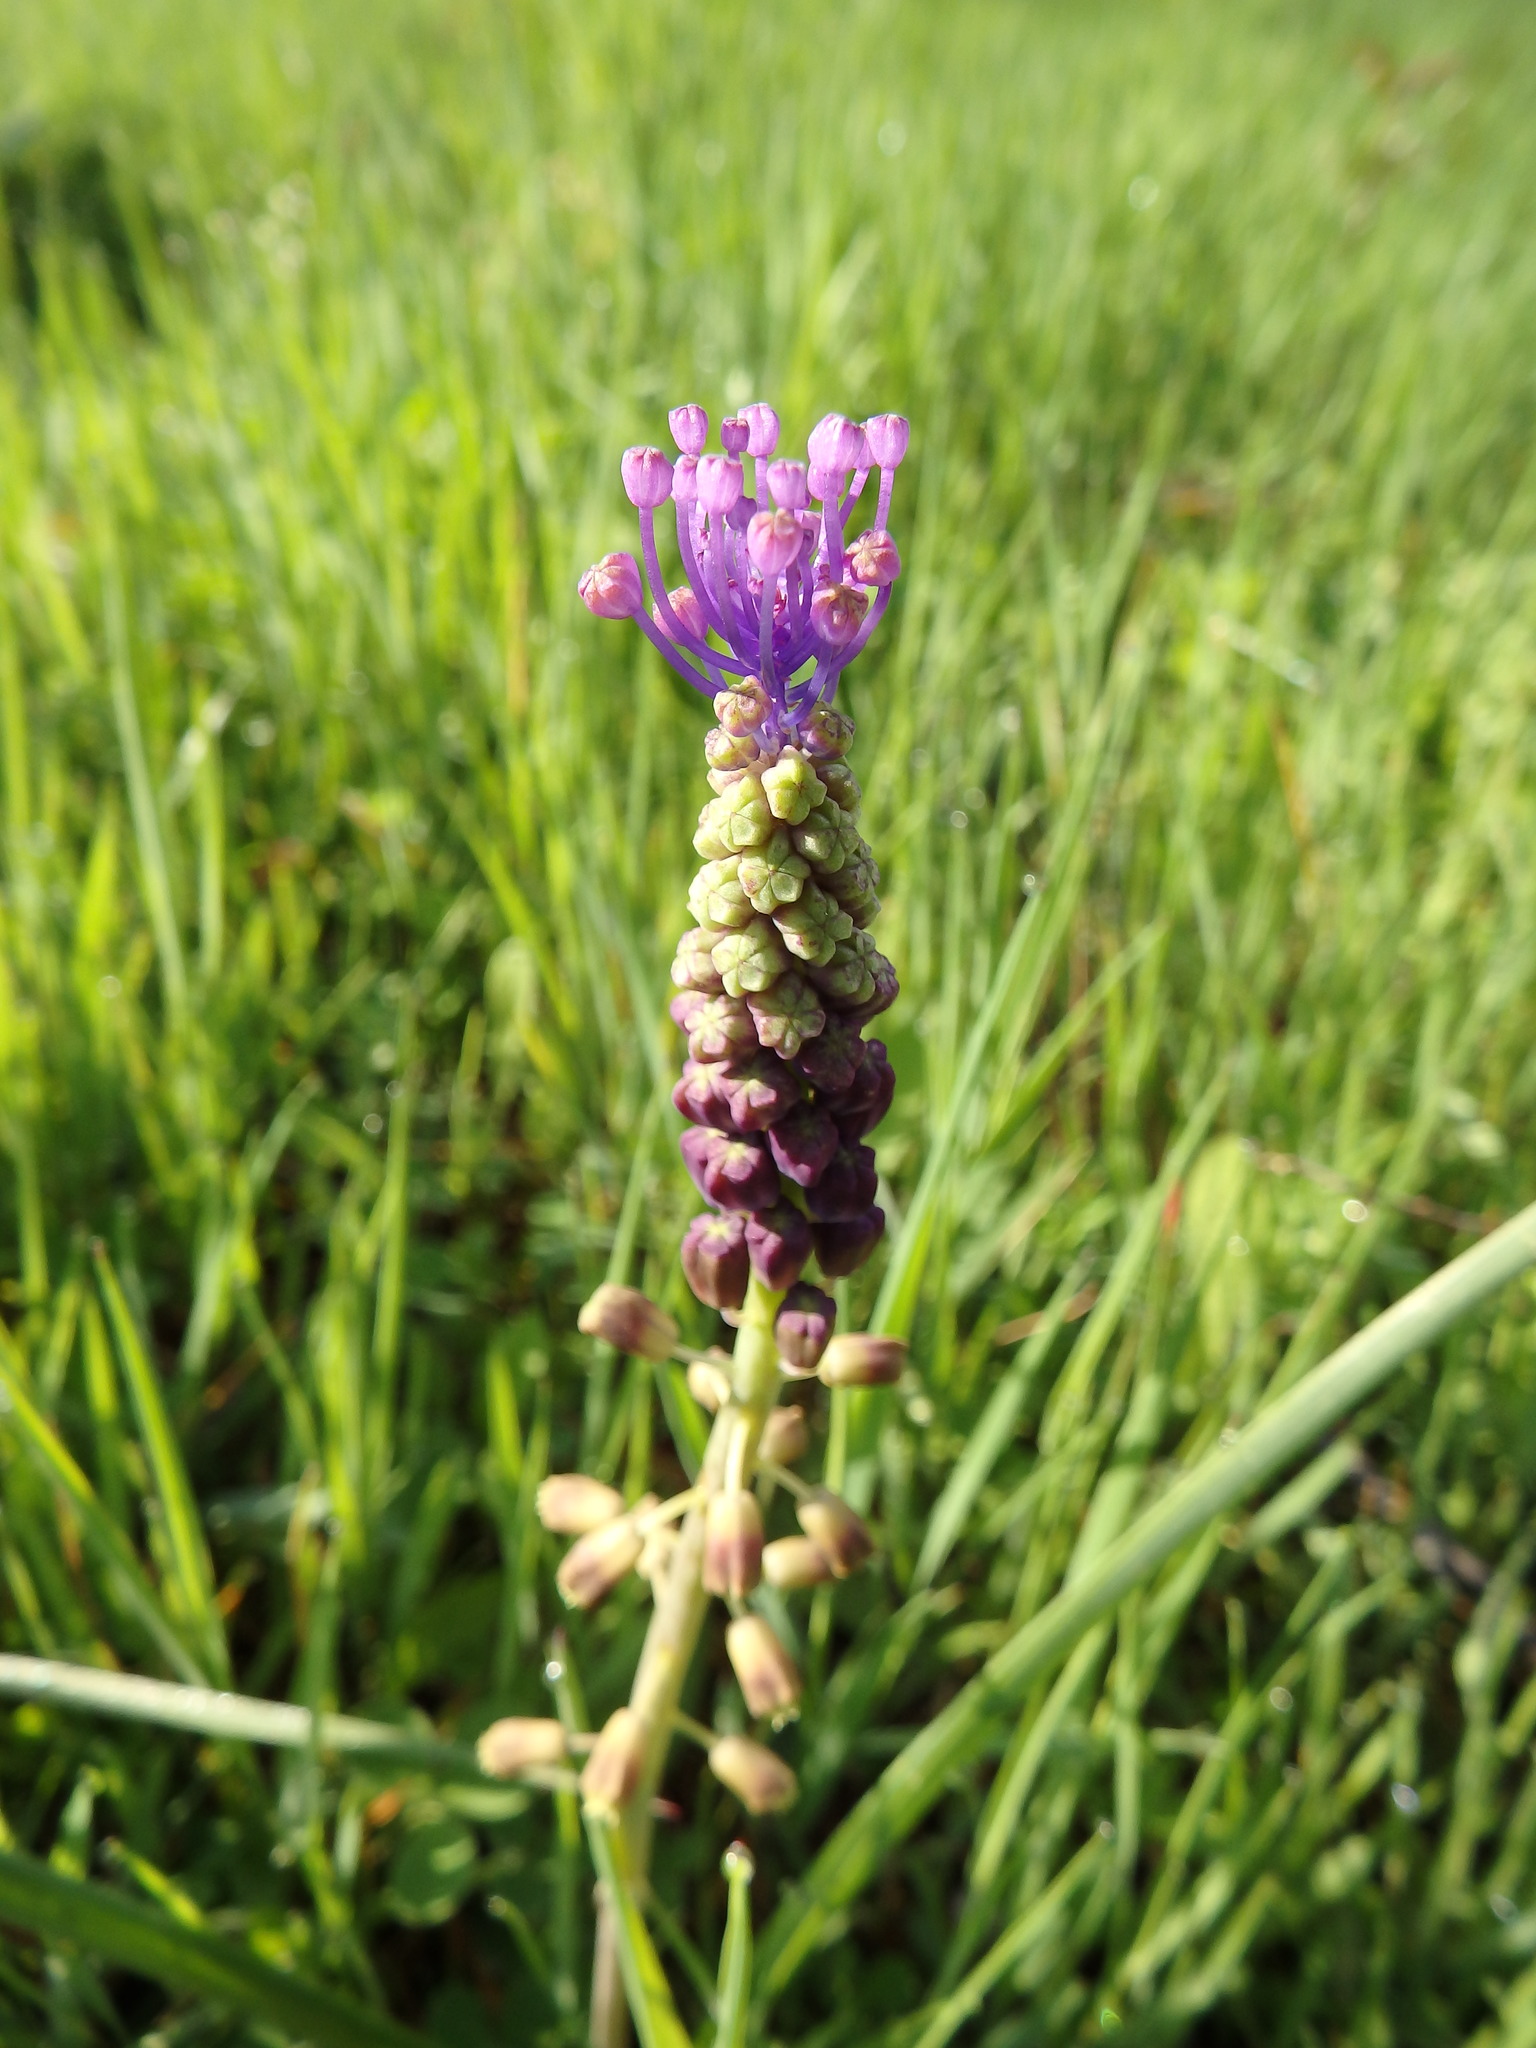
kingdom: Plantae
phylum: Tracheophyta
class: Liliopsida
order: Asparagales
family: Asparagaceae
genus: Muscari
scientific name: Muscari comosum
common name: Tassel hyacinth
